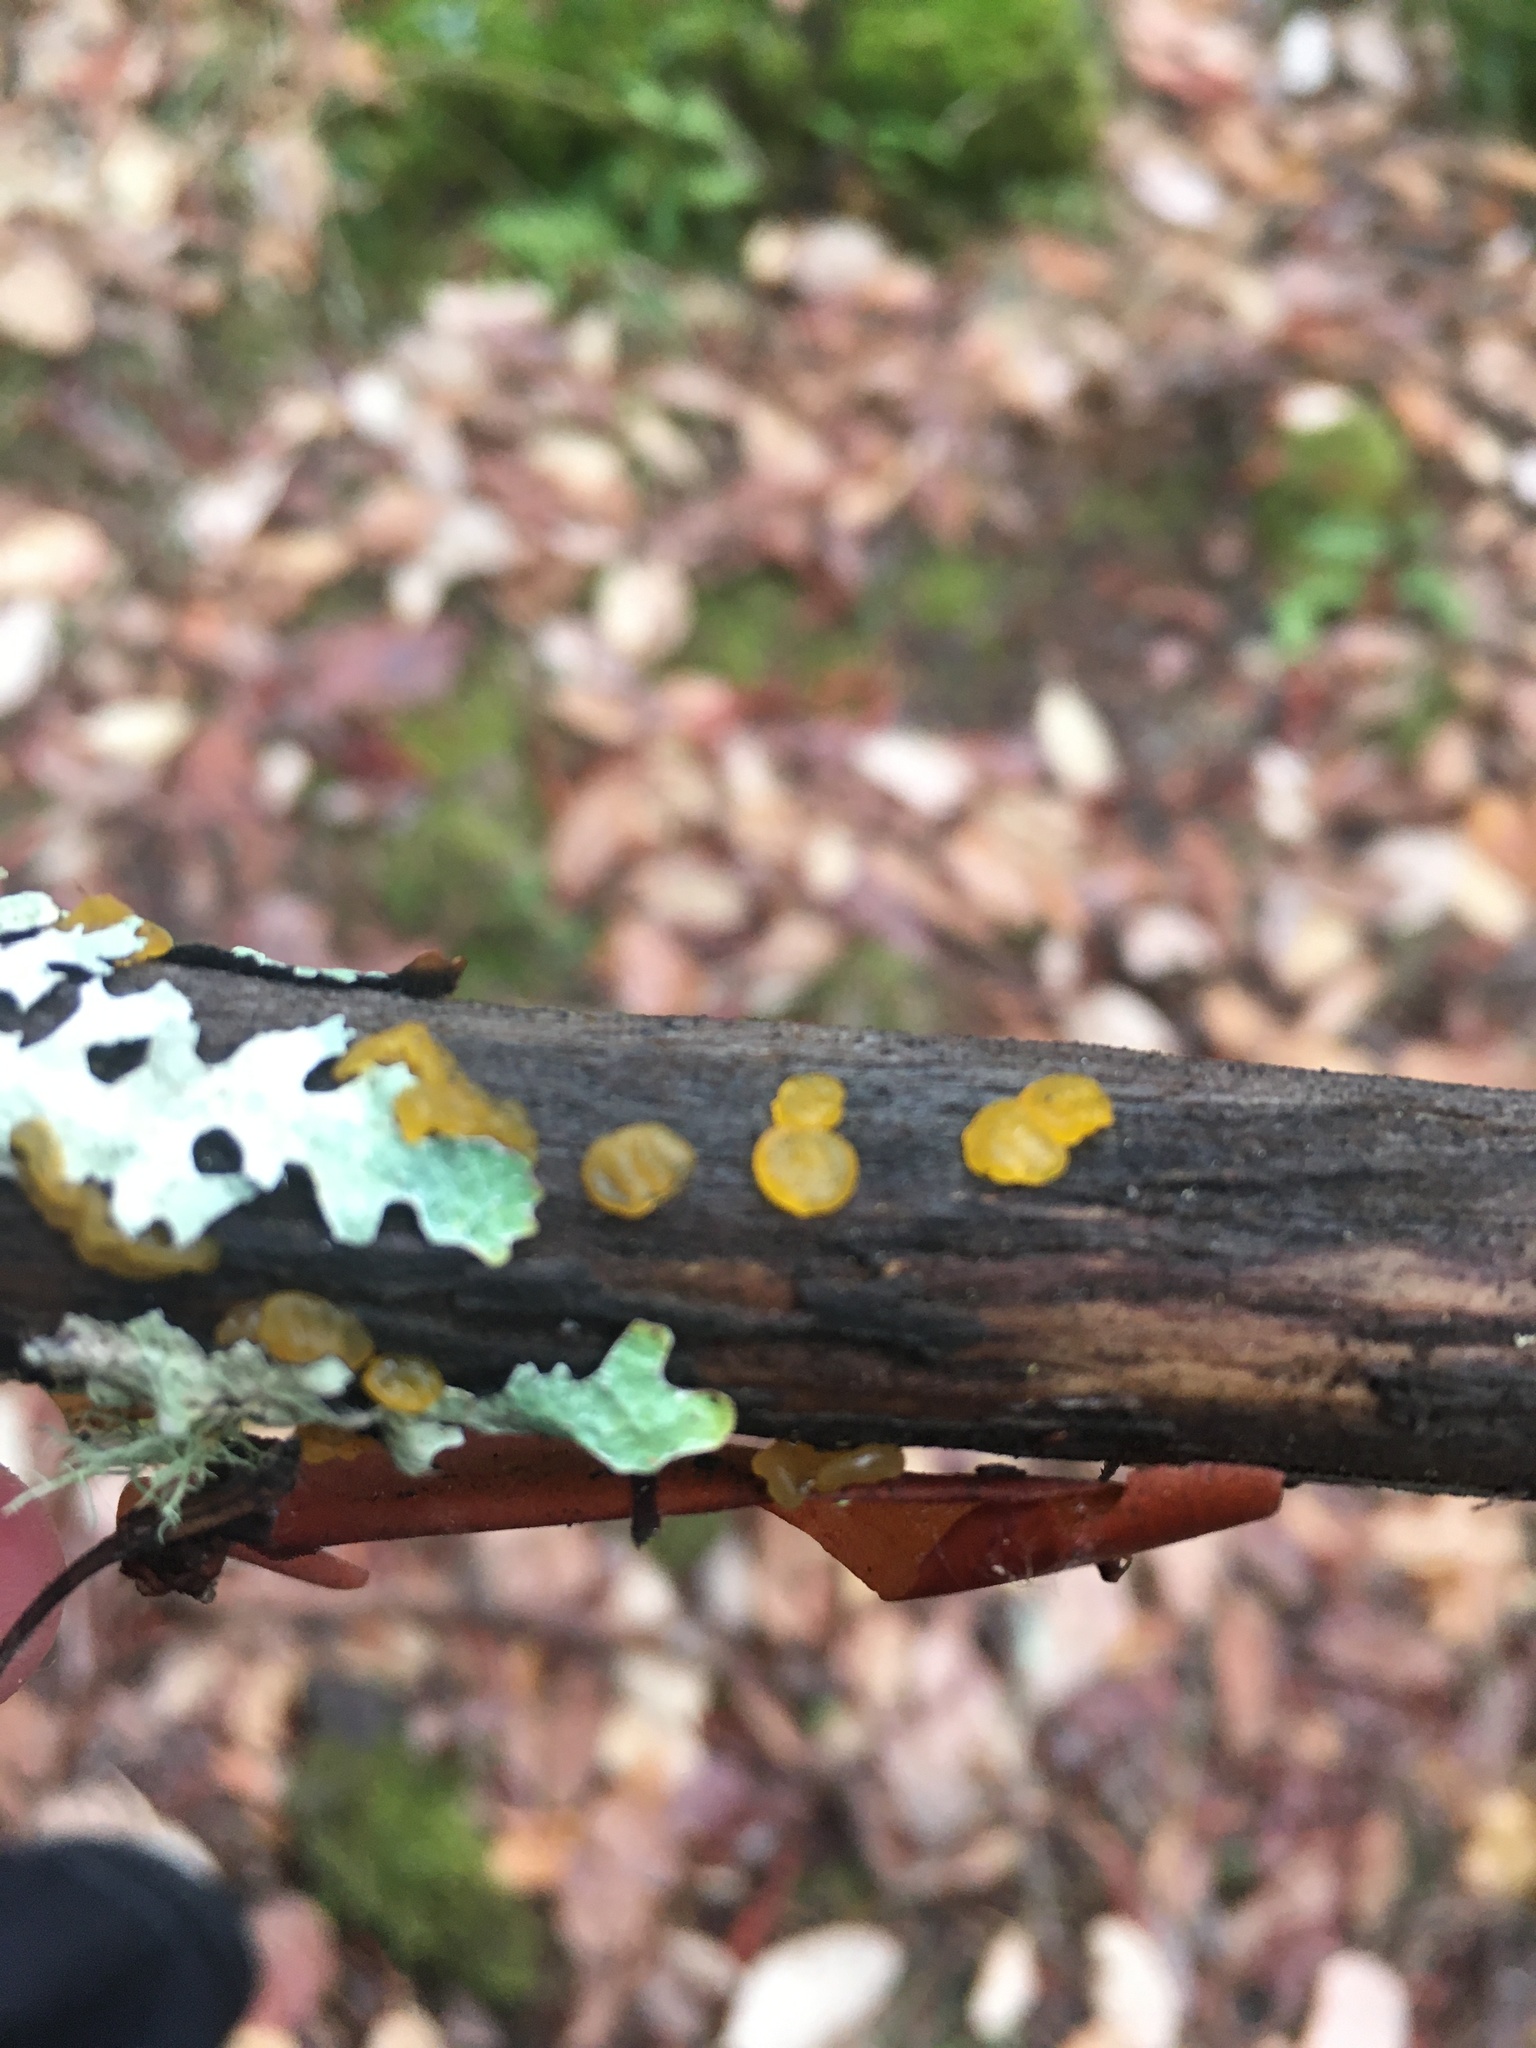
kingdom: Fungi
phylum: Basidiomycota
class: Dacrymycetes
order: Dacrymycetales
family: Dacrymycetaceae
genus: Guepiniopsis
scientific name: Guepiniopsis alpina
